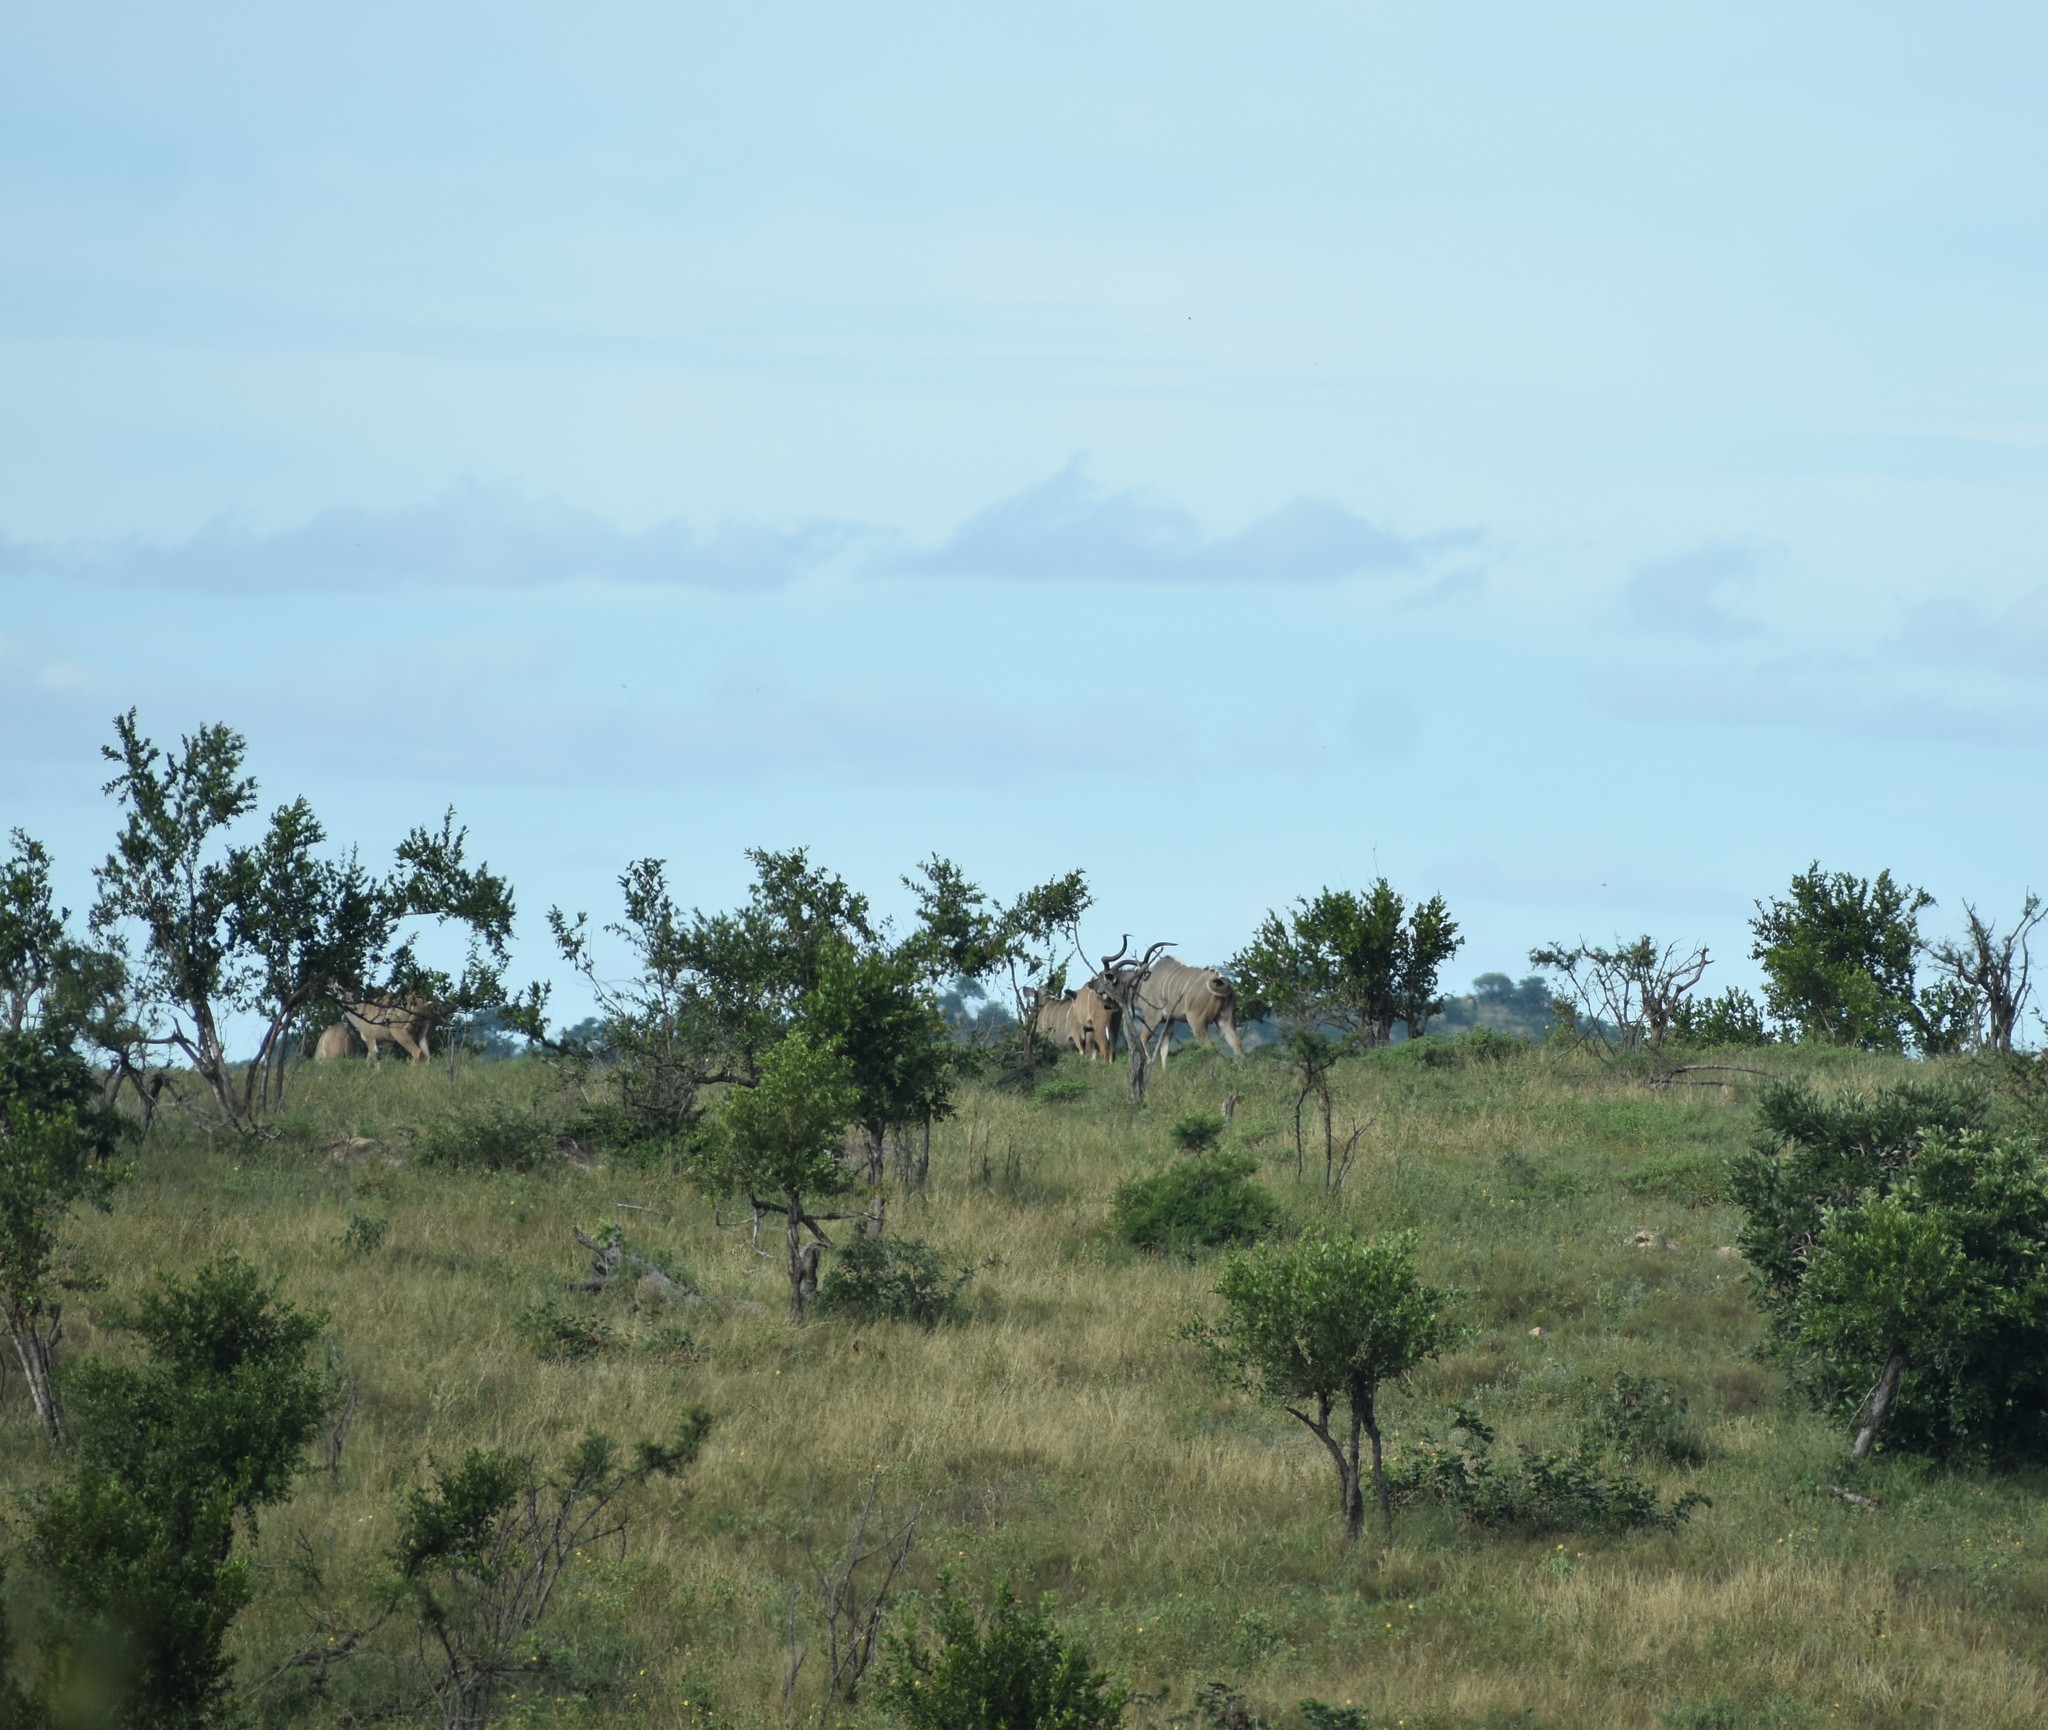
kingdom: Animalia
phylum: Chordata
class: Mammalia
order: Artiodactyla
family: Bovidae
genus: Tragelaphus
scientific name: Tragelaphus strepsiceros
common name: Greater kudu
